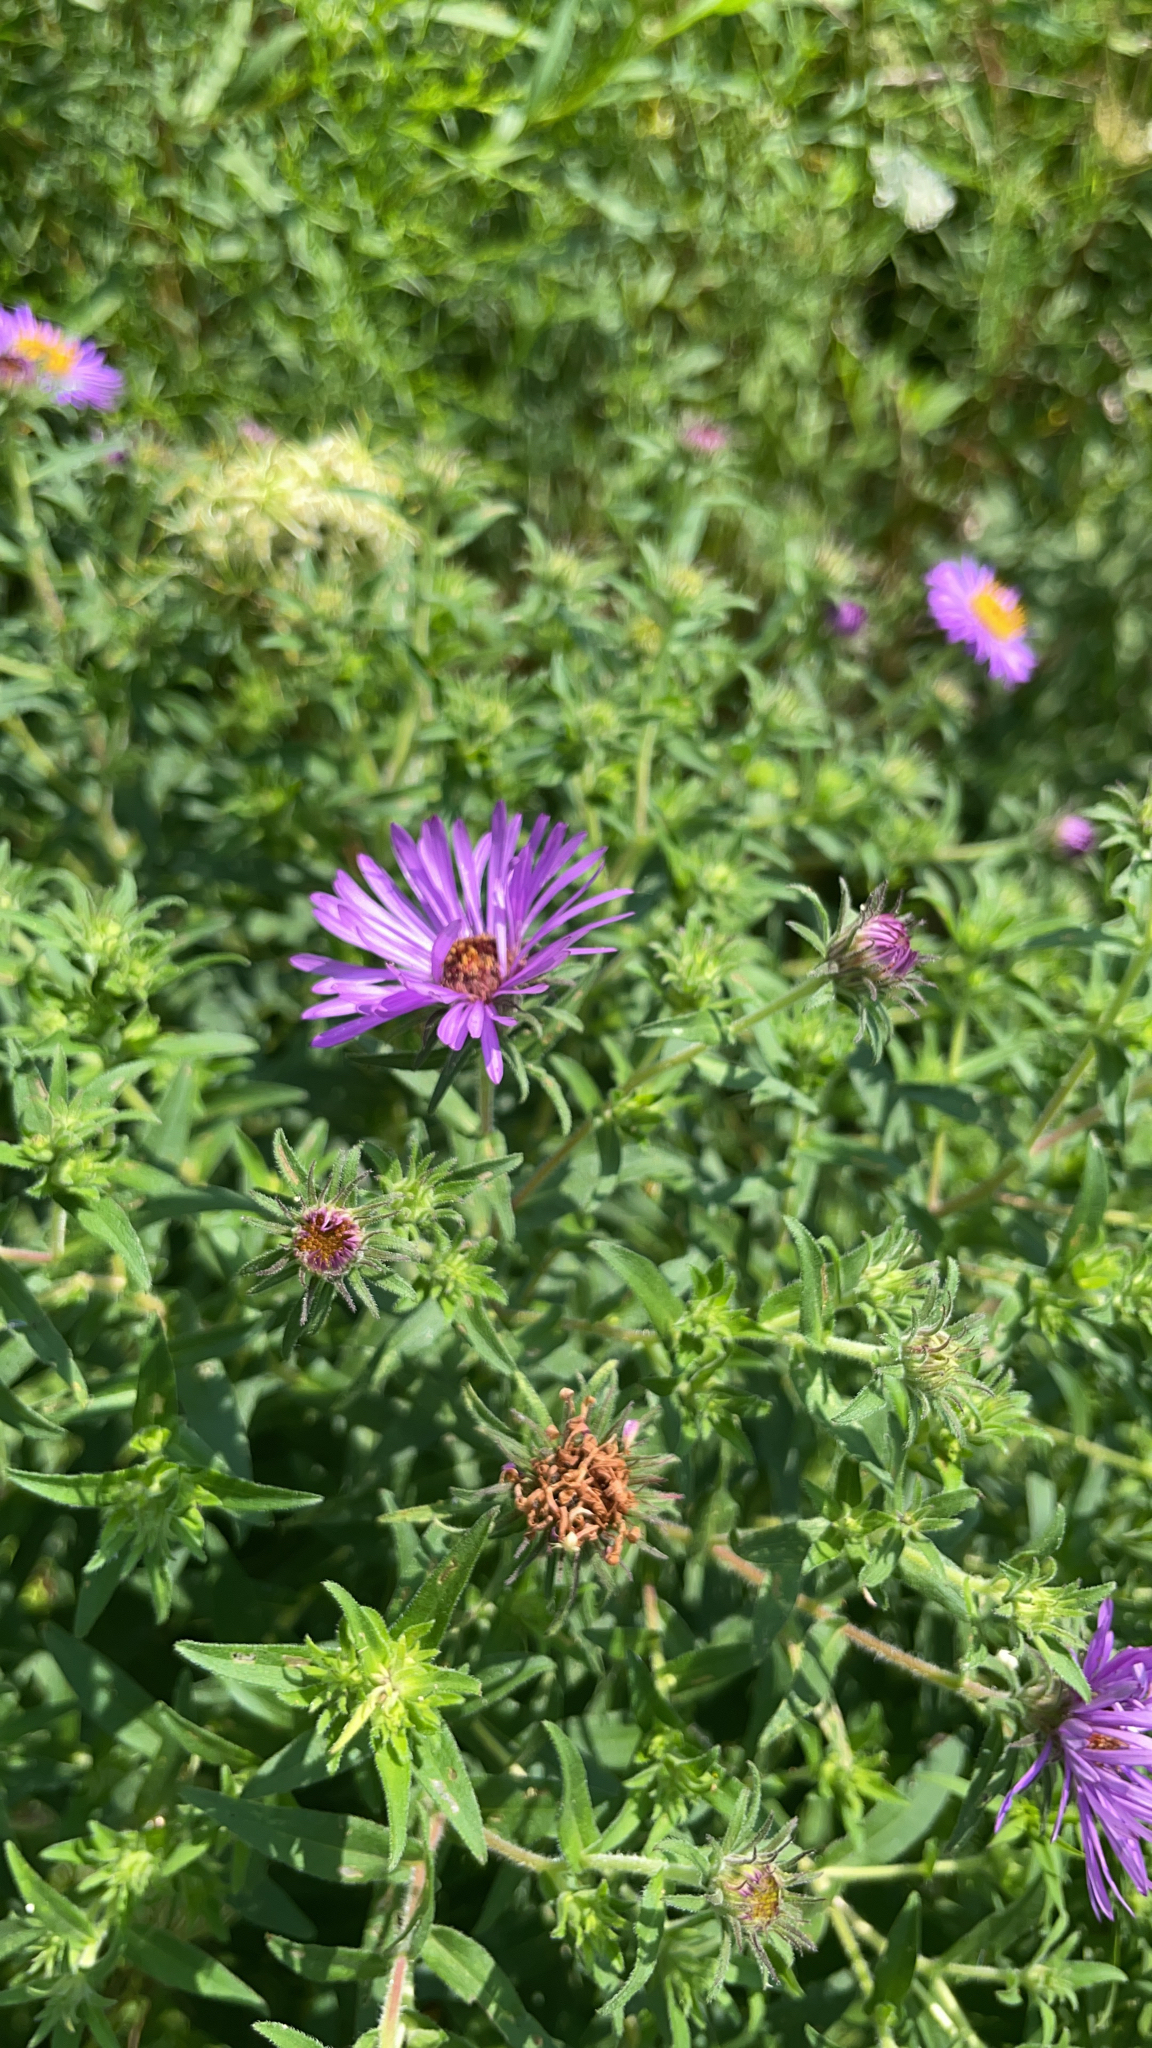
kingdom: Plantae
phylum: Tracheophyta
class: Magnoliopsida
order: Asterales
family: Asteraceae
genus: Symphyotrichum
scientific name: Symphyotrichum novae-angliae
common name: Michaelmas daisy
